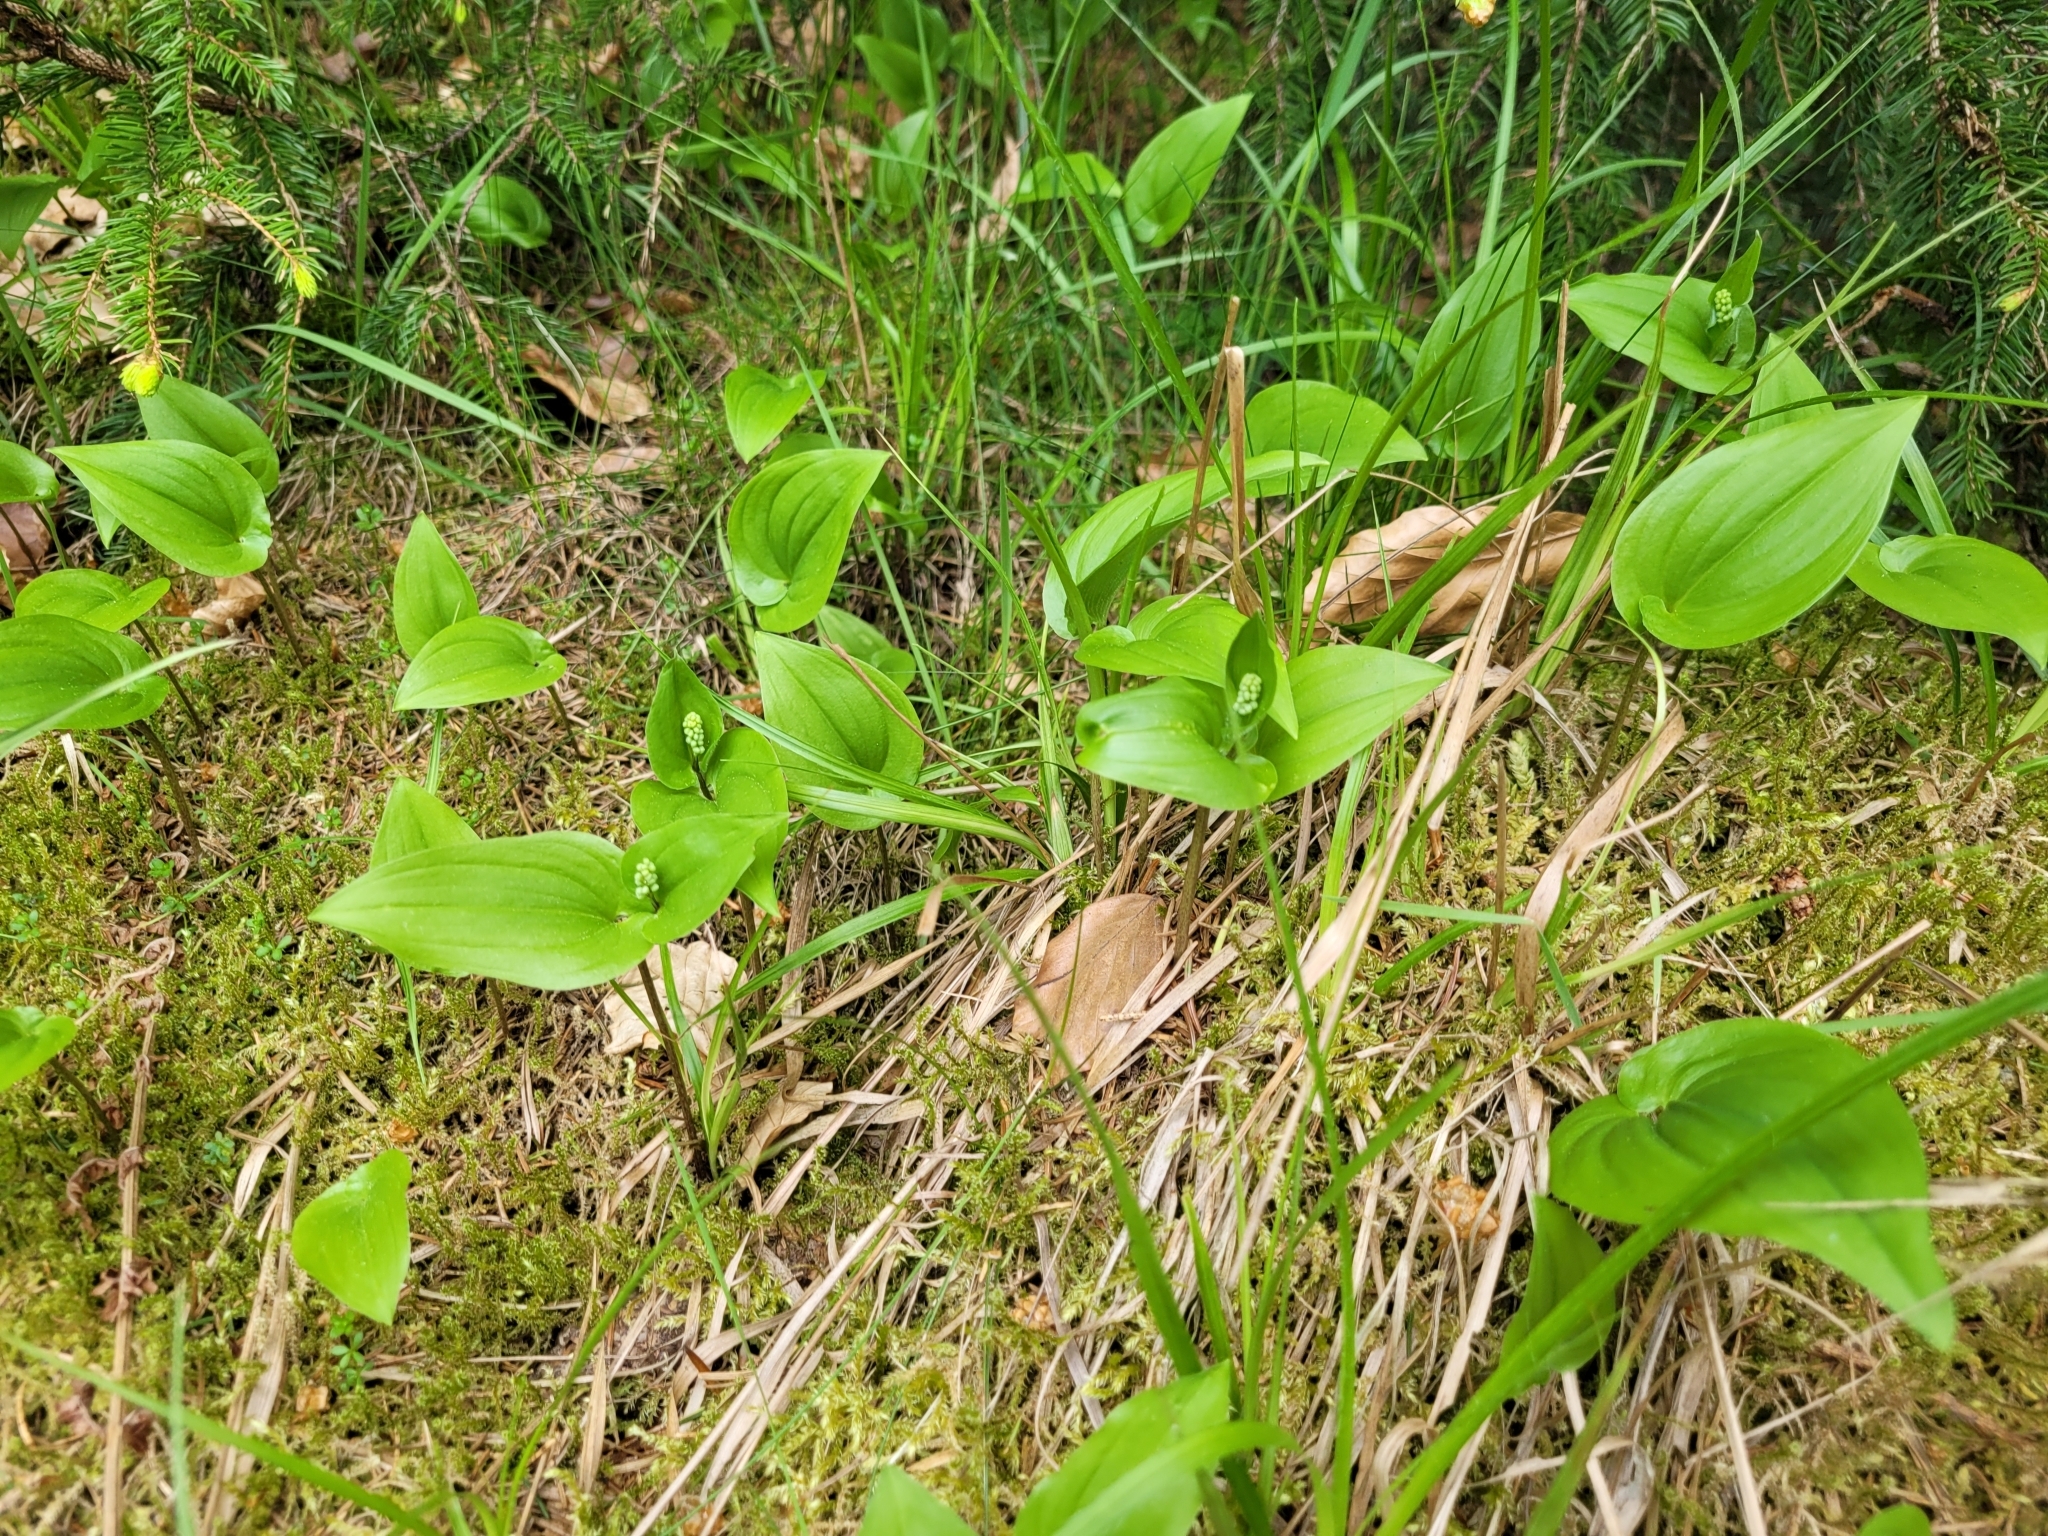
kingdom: Plantae
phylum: Tracheophyta
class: Liliopsida
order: Asparagales
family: Asparagaceae
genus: Maianthemum
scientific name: Maianthemum bifolium
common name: May lily
